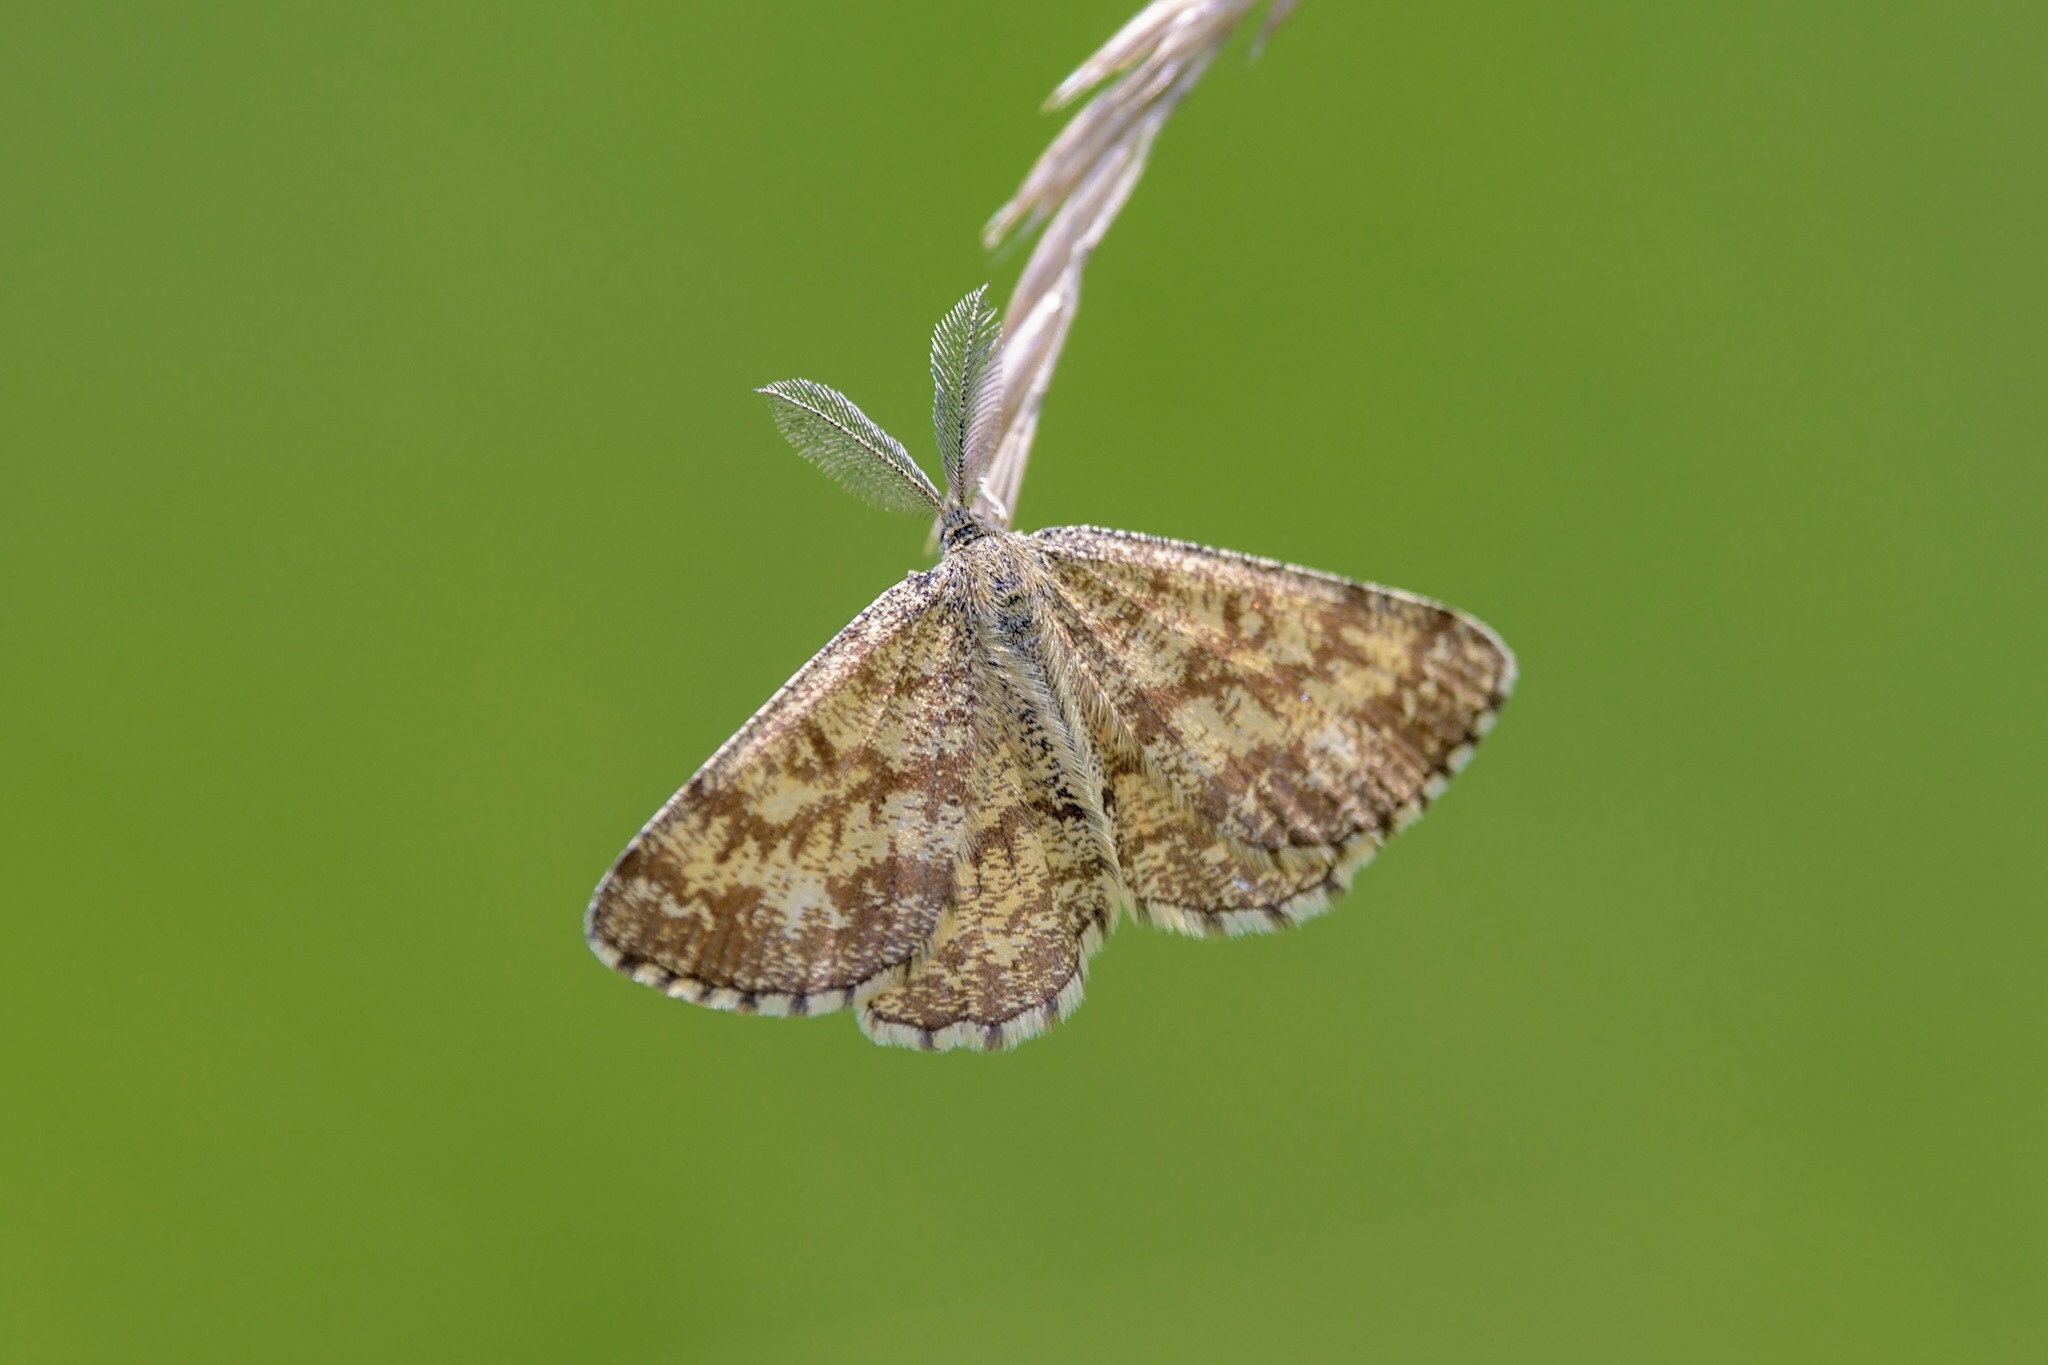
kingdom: Animalia
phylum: Arthropoda
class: Insecta
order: Lepidoptera
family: Geometridae
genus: Ematurga
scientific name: Ematurga atomaria
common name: Common heath
